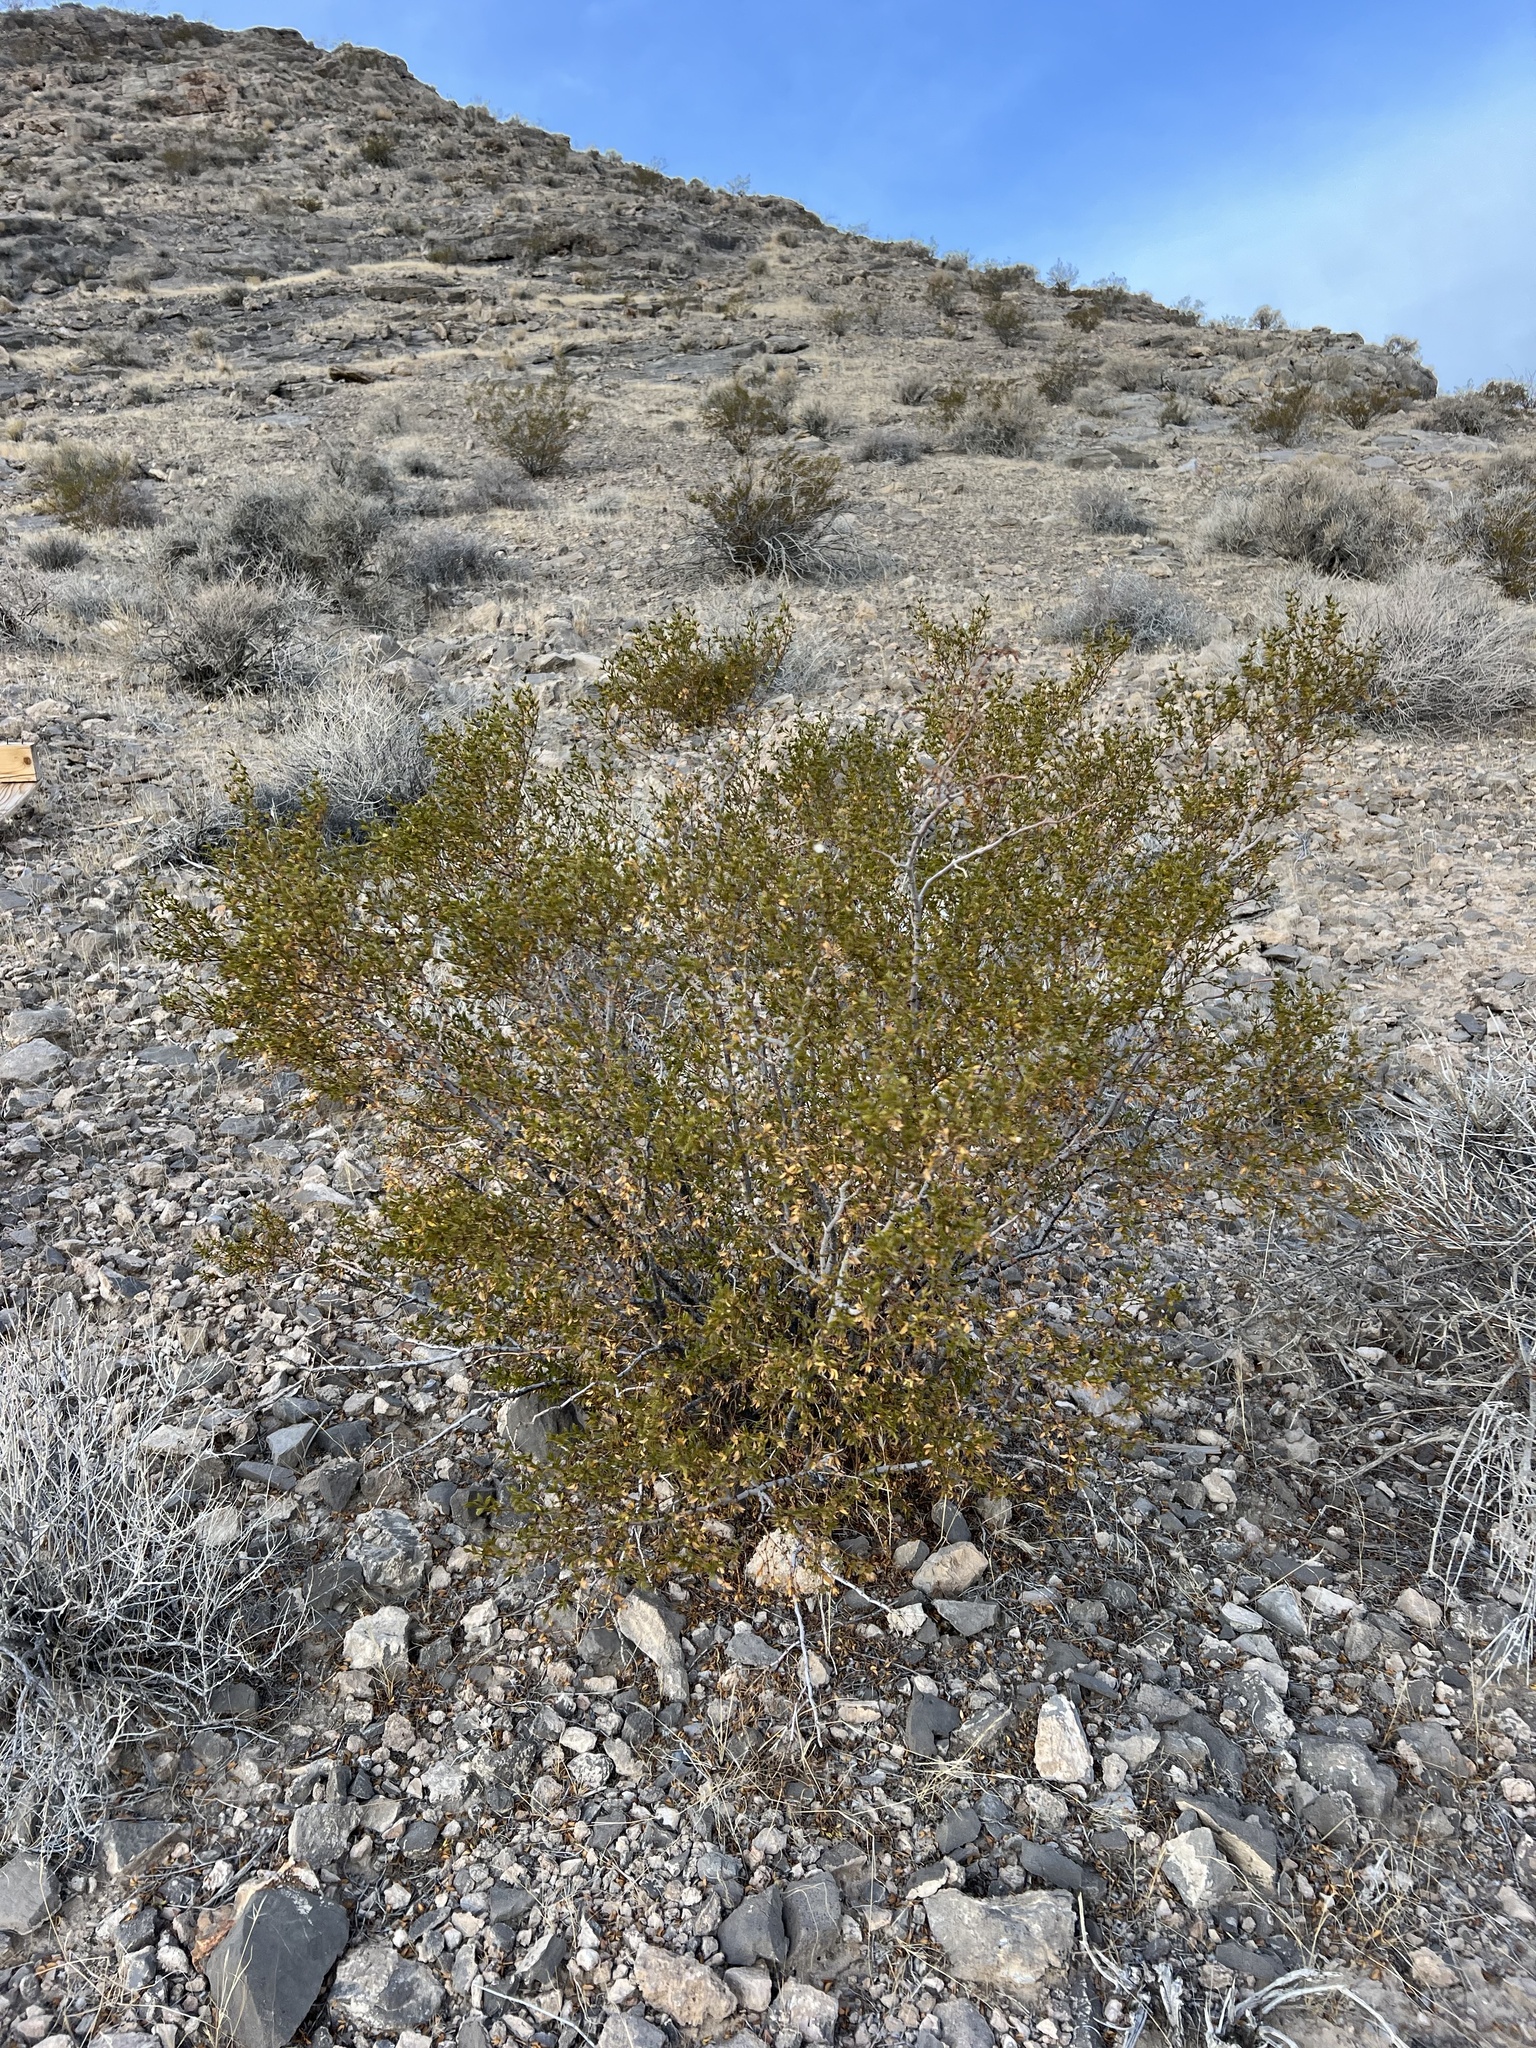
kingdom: Plantae
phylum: Tracheophyta
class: Magnoliopsida
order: Zygophyllales
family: Zygophyllaceae
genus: Larrea
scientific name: Larrea tridentata
